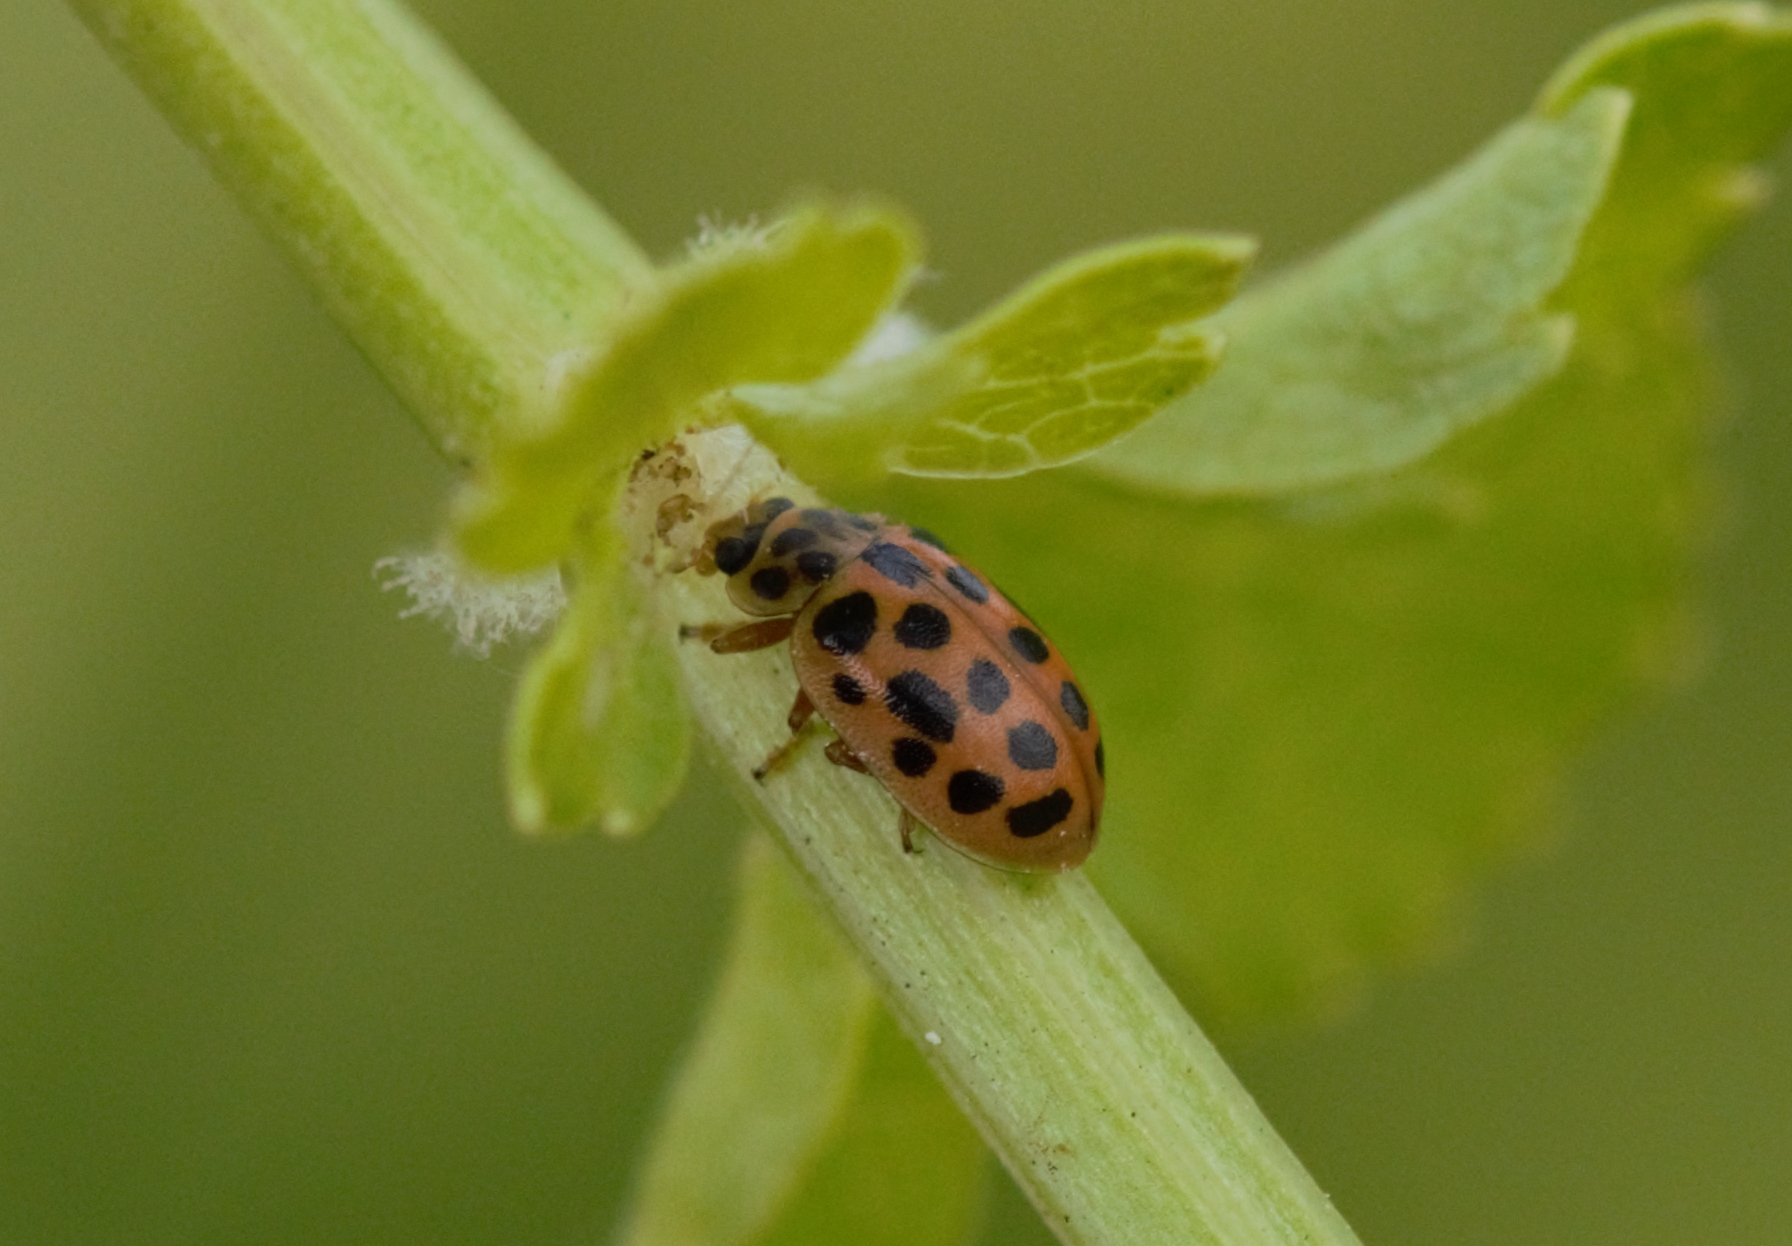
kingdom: Animalia
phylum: Arthropoda
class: Insecta
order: Coleoptera
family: Coccinellidae
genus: Anisosticta
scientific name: Anisosticta novemdecimpunctata
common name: Water ladybird
